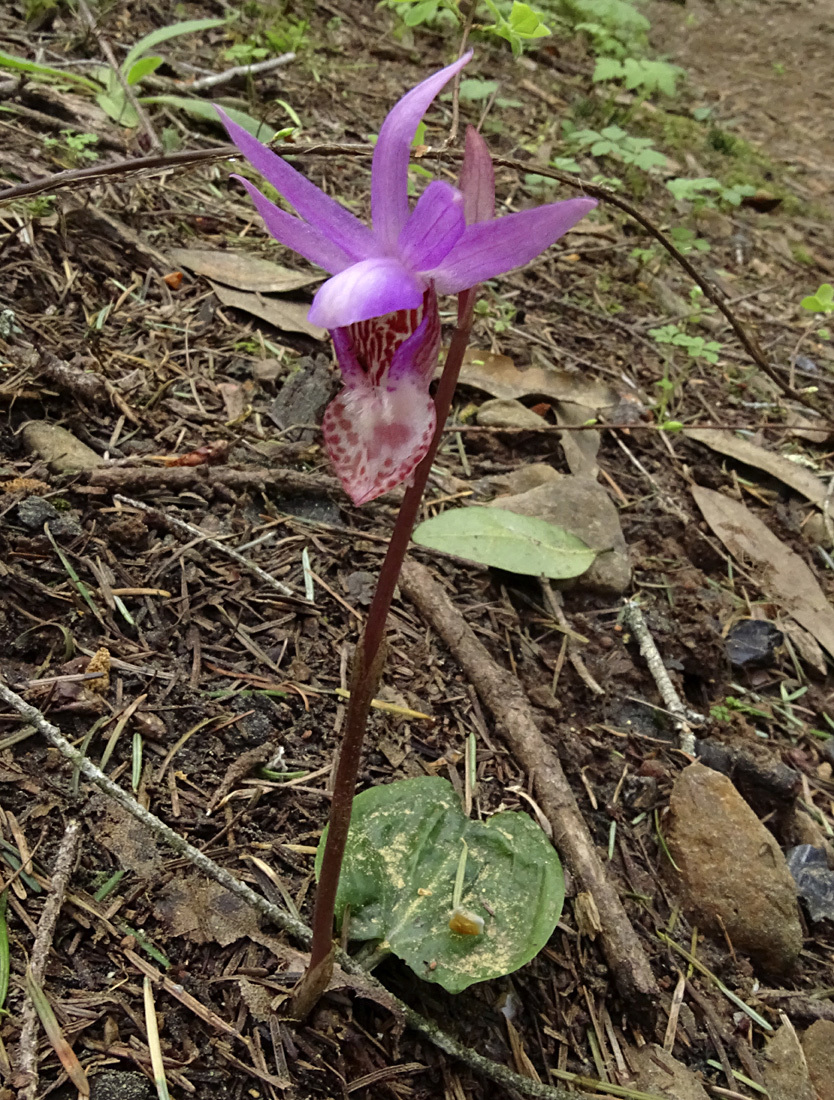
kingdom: Plantae
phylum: Tracheophyta
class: Liliopsida
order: Asparagales
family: Orchidaceae
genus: Calypso
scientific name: Calypso bulbosa
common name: Calypso
